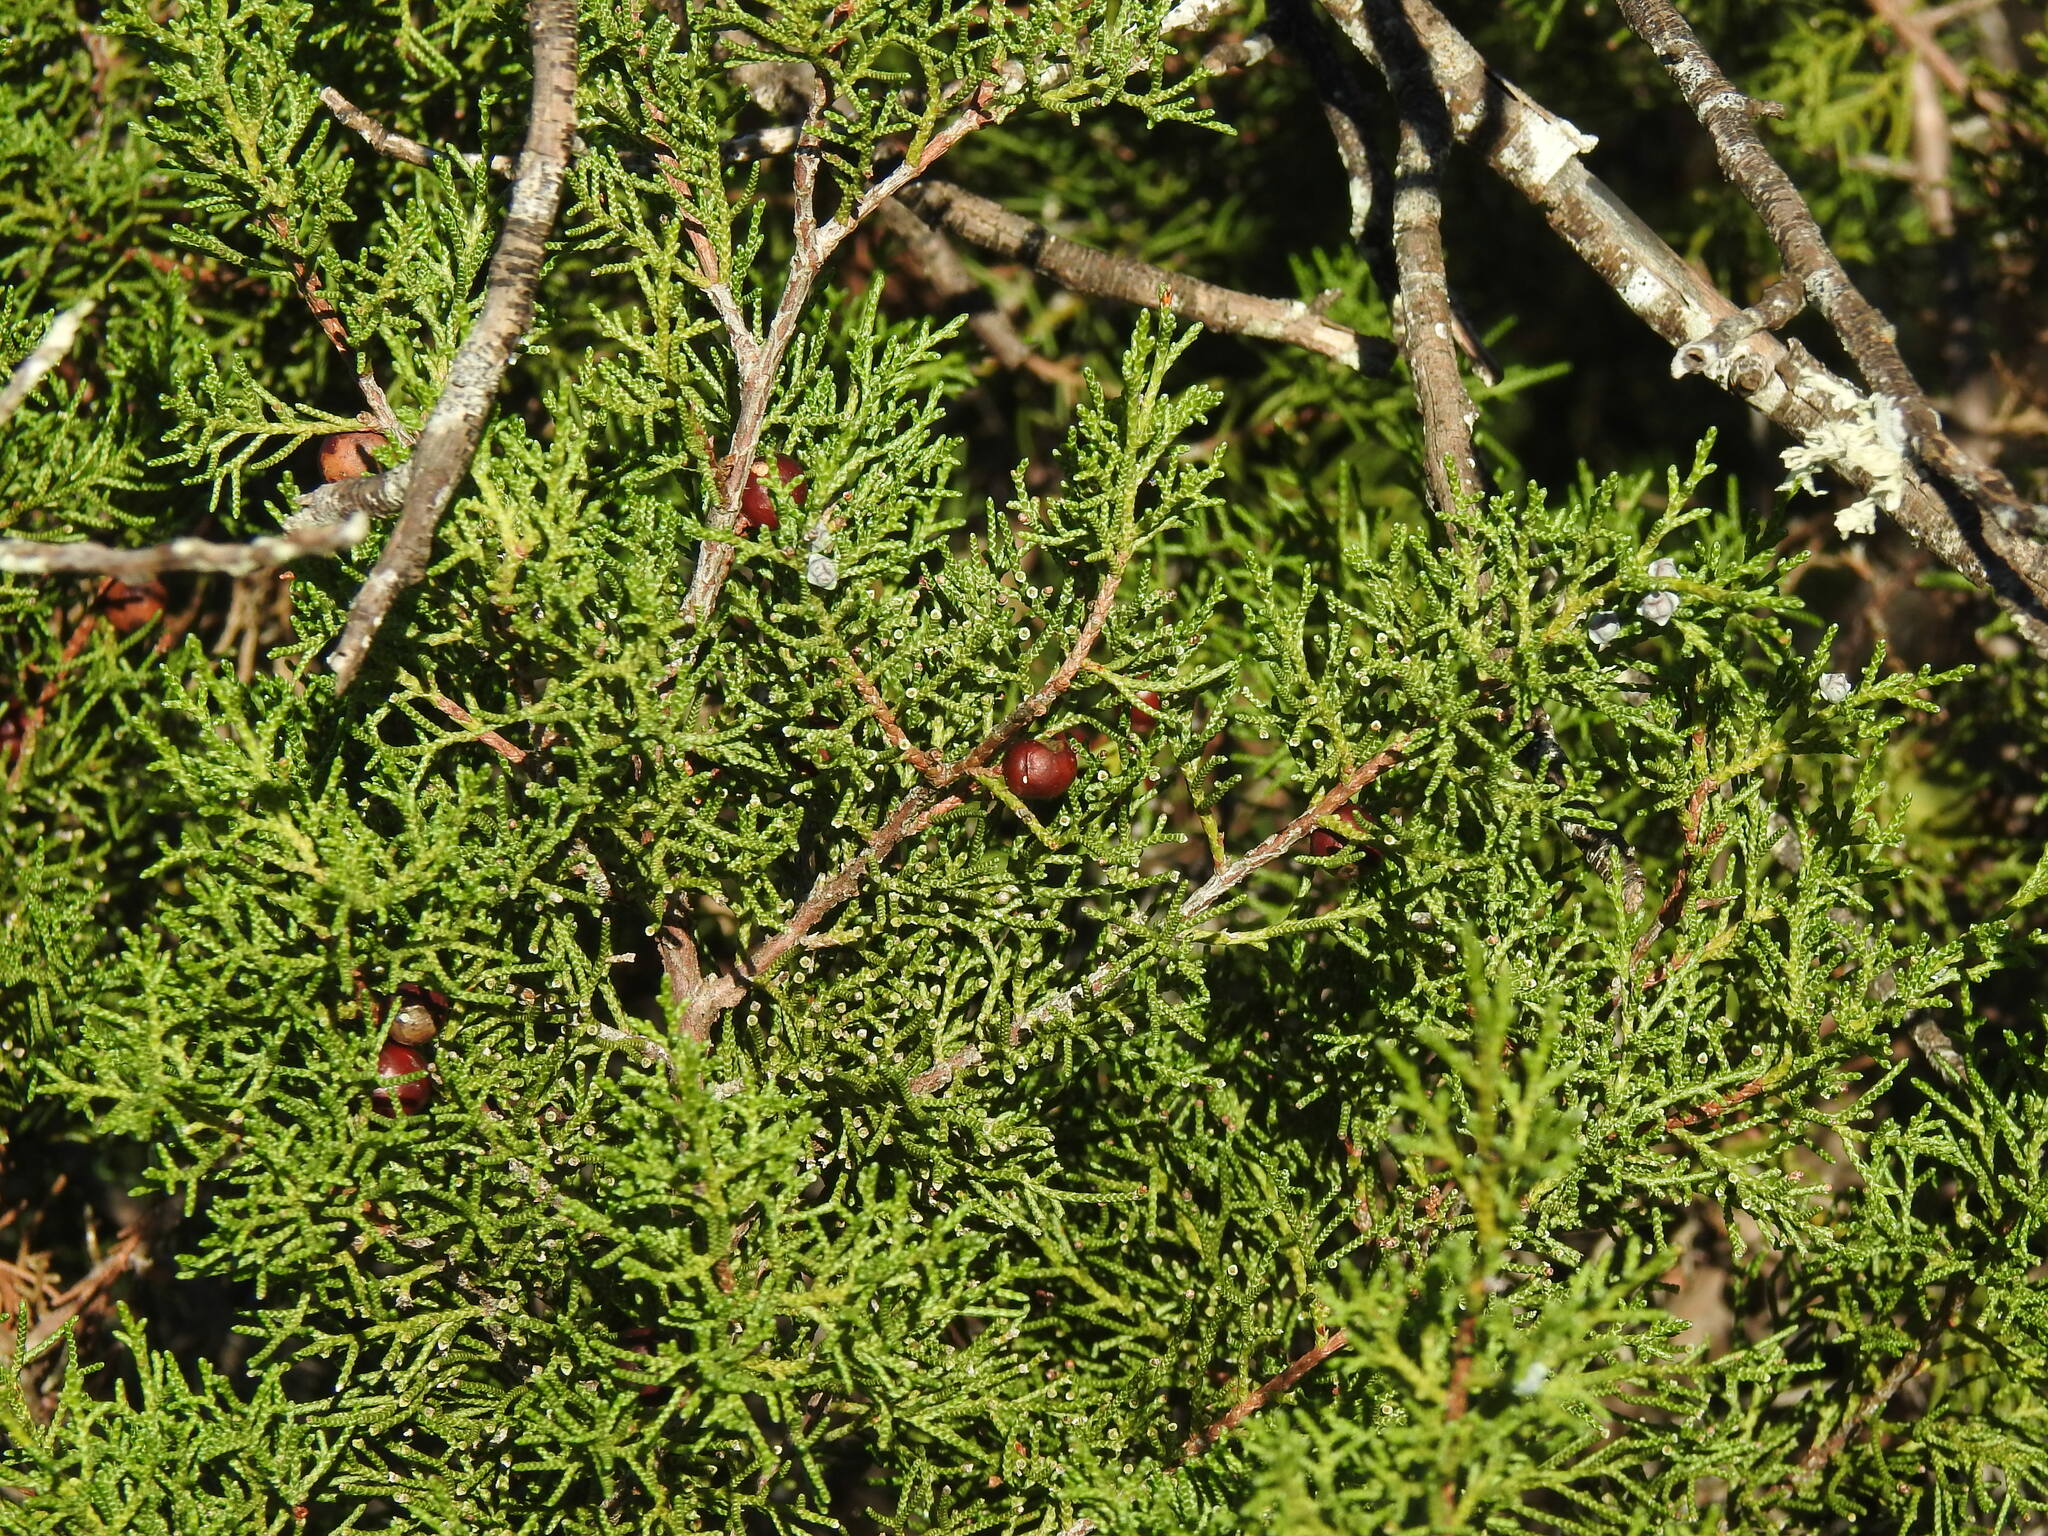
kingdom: Plantae
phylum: Tracheophyta
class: Pinopsida
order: Pinales
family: Cupressaceae
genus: Juniperus
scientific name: Juniperus phoenicea
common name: Phoenician juniper
